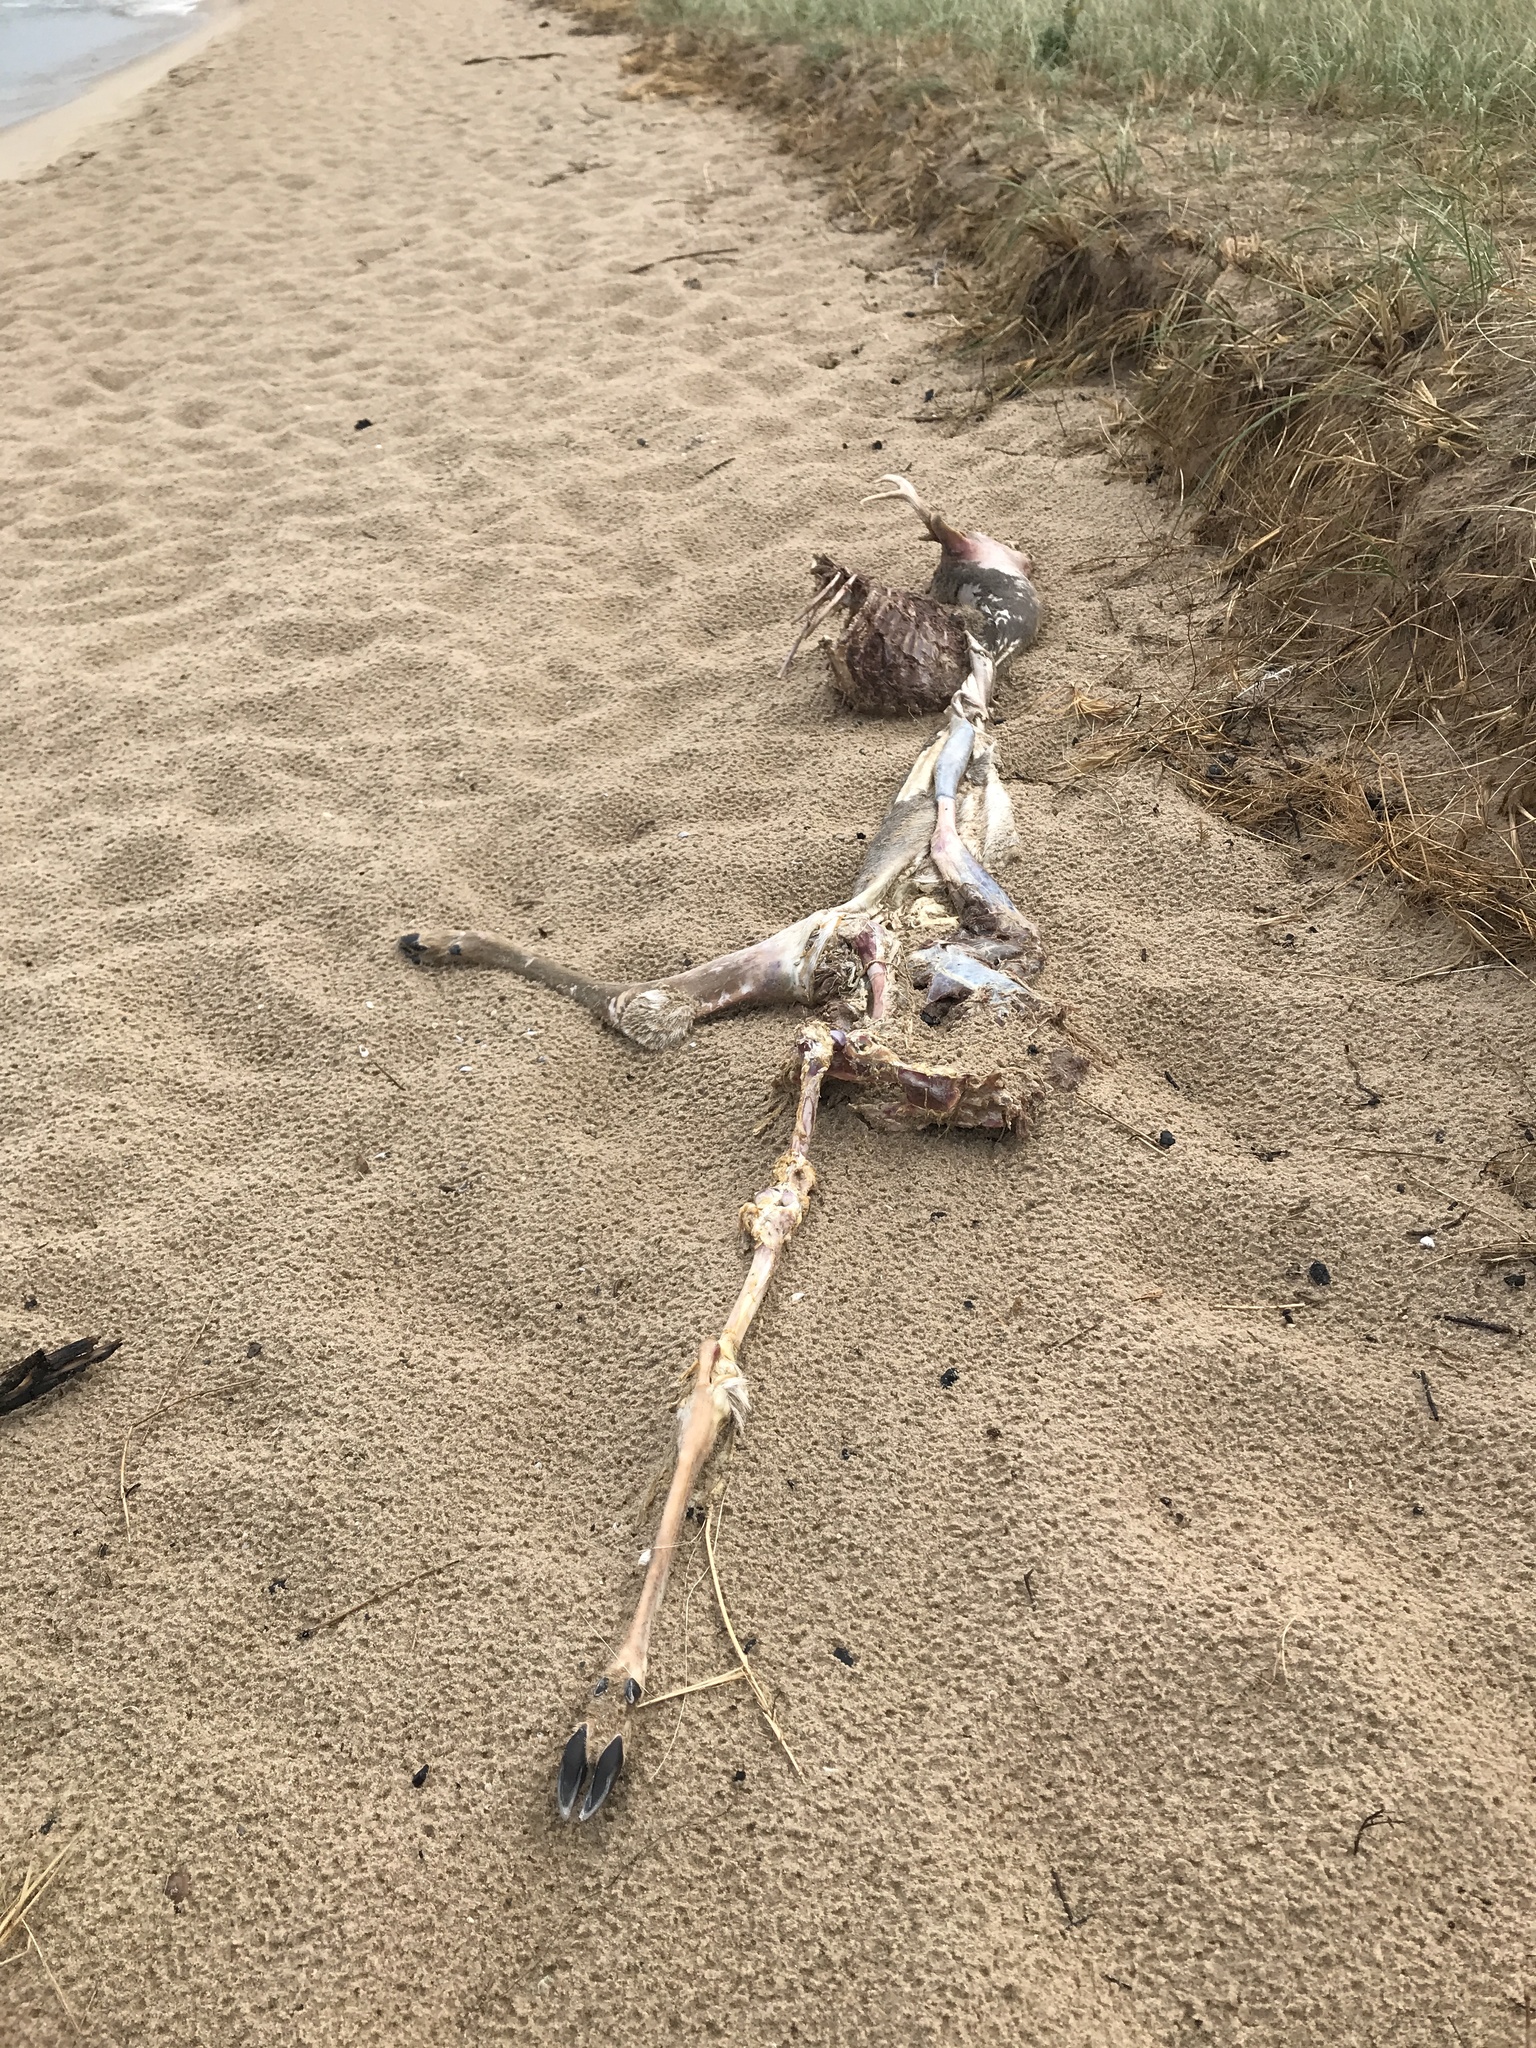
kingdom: Animalia
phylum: Chordata
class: Mammalia
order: Artiodactyla
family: Cervidae
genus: Odocoileus
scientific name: Odocoileus virginianus
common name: White-tailed deer
